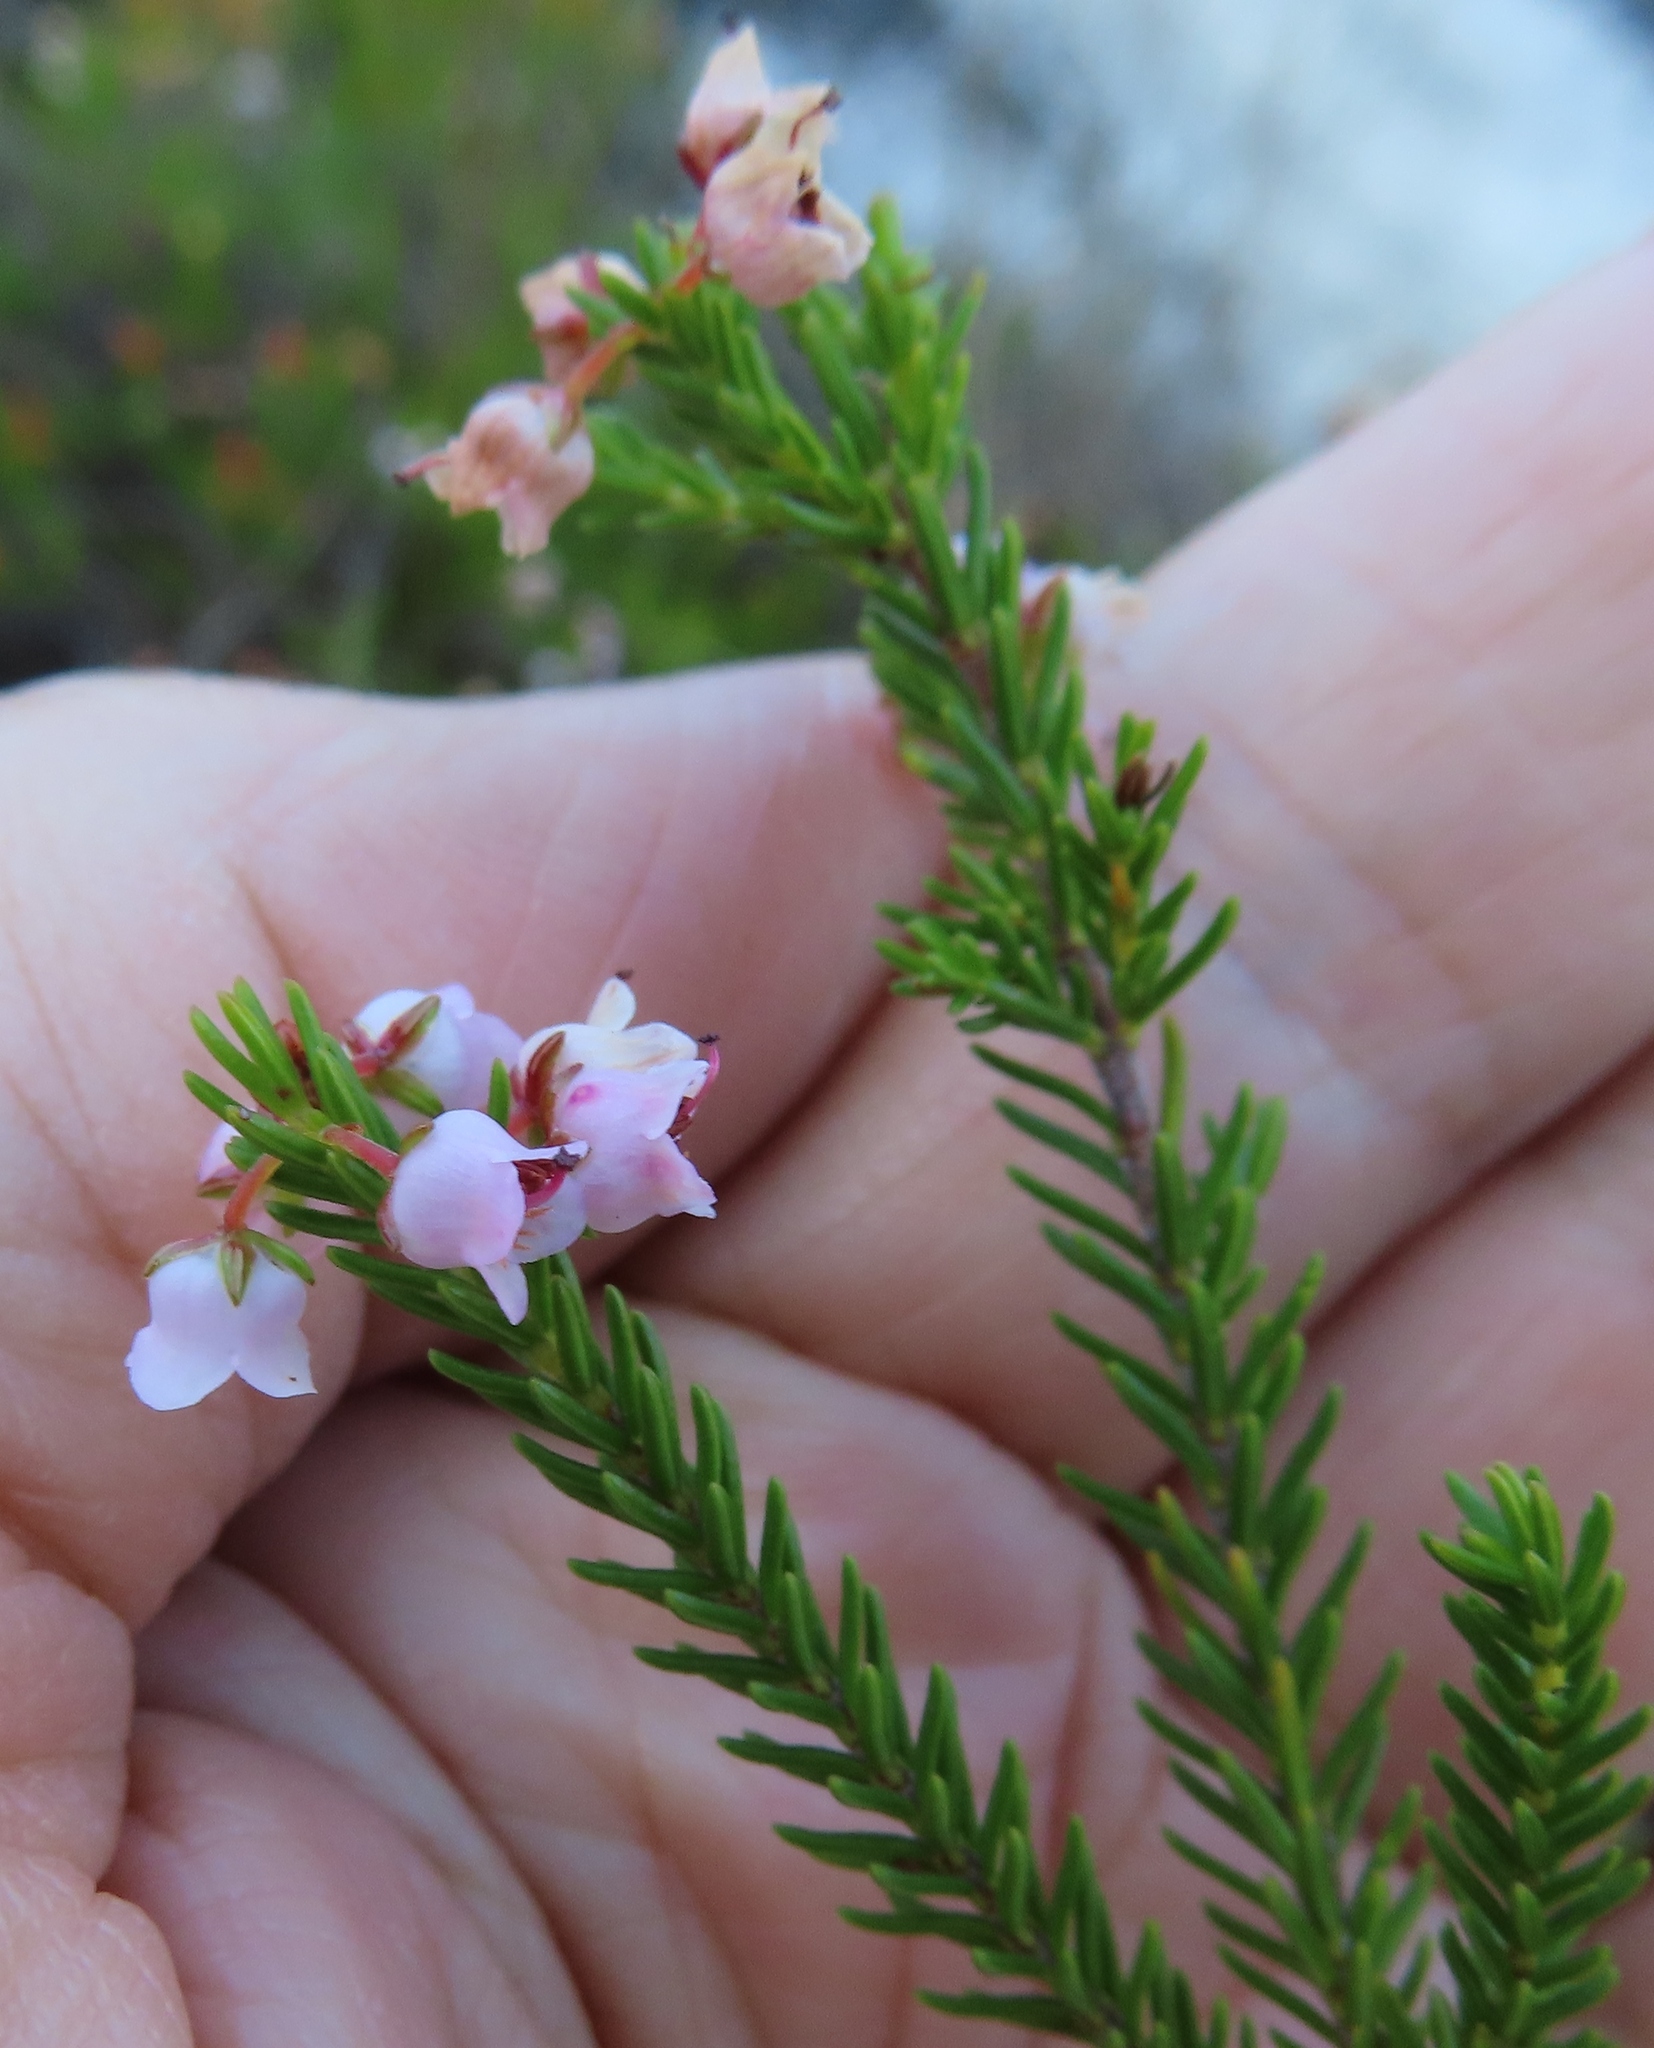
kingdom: Plantae
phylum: Tracheophyta
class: Magnoliopsida
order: Ericales
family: Ericaceae
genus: Erica
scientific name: Erica curvirostris
